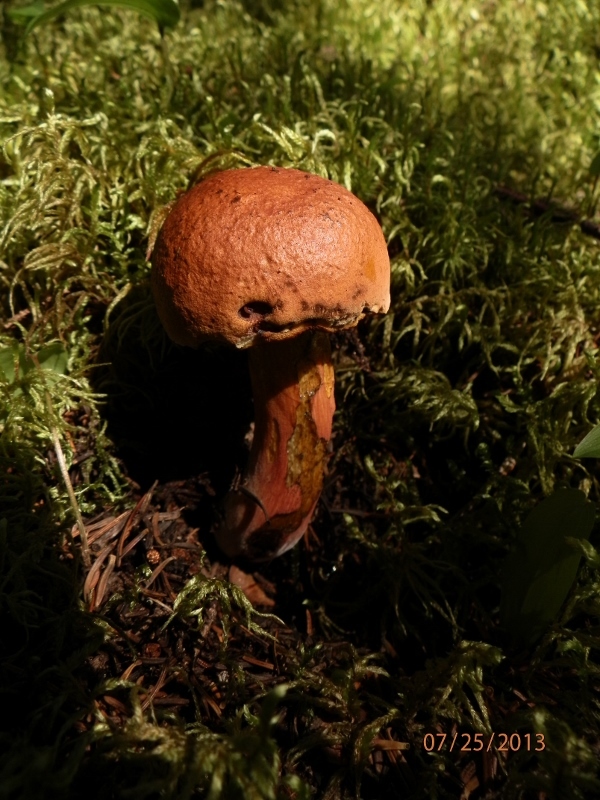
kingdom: Fungi
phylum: Basidiomycota
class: Agaricomycetes
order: Boletales
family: Boletaceae
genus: Boletus
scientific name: Boletus subvelutipes
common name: Red-mouth bolete
